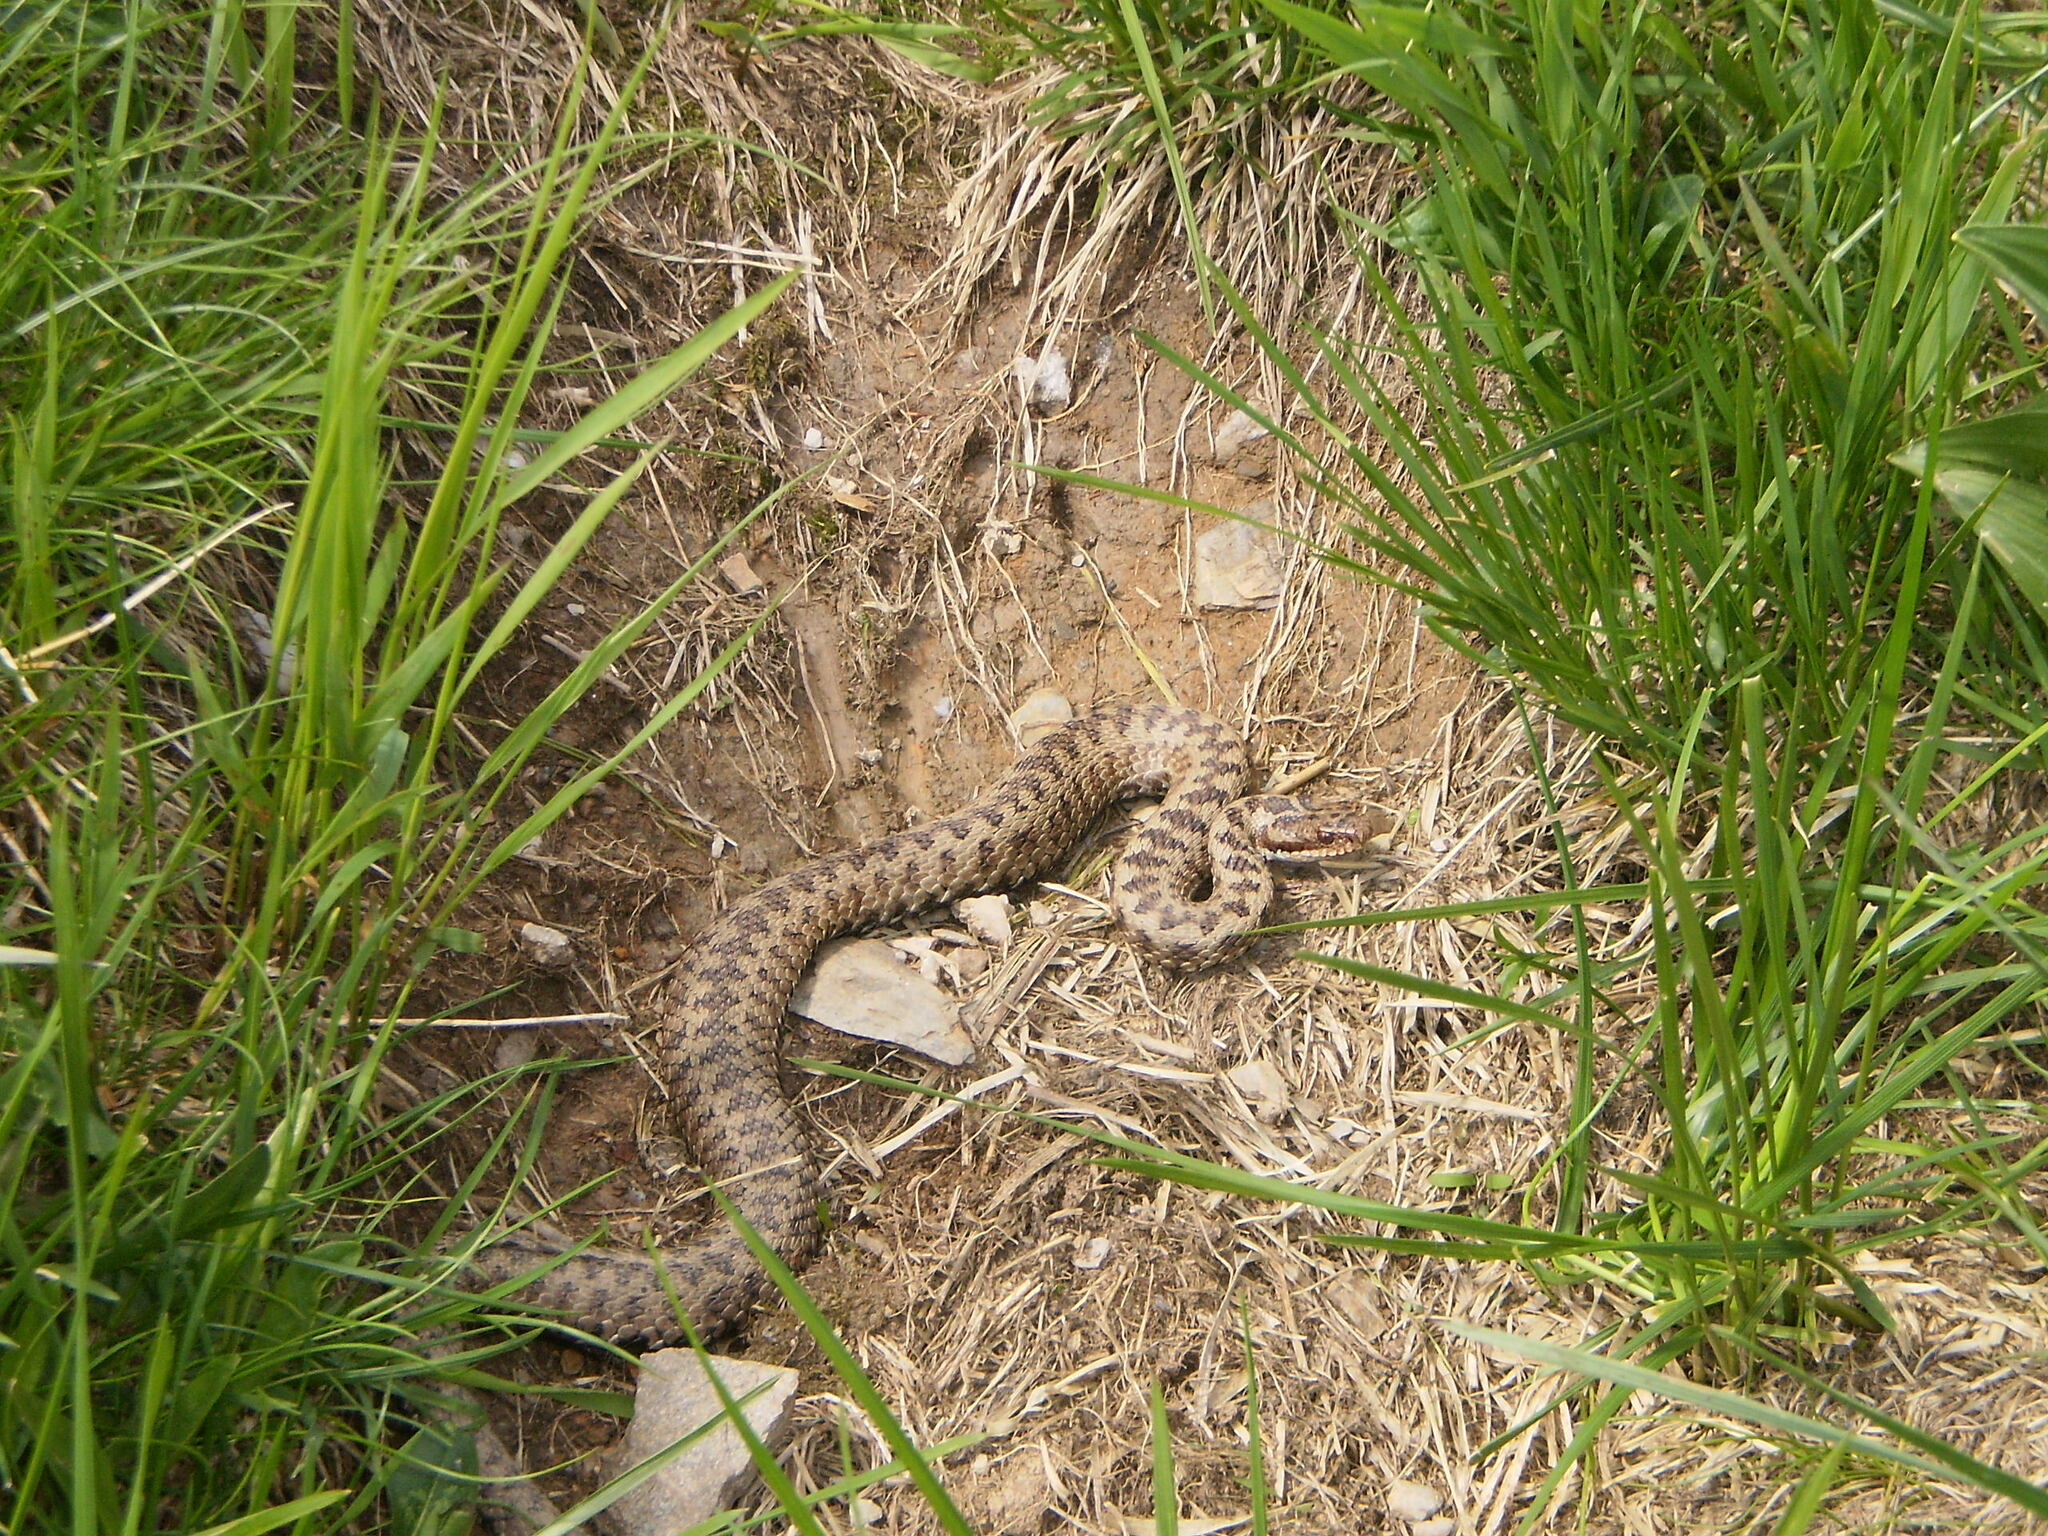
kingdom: Animalia
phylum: Chordata
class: Squamata
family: Viperidae
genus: Vipera
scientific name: Vipera berus
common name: Adder
